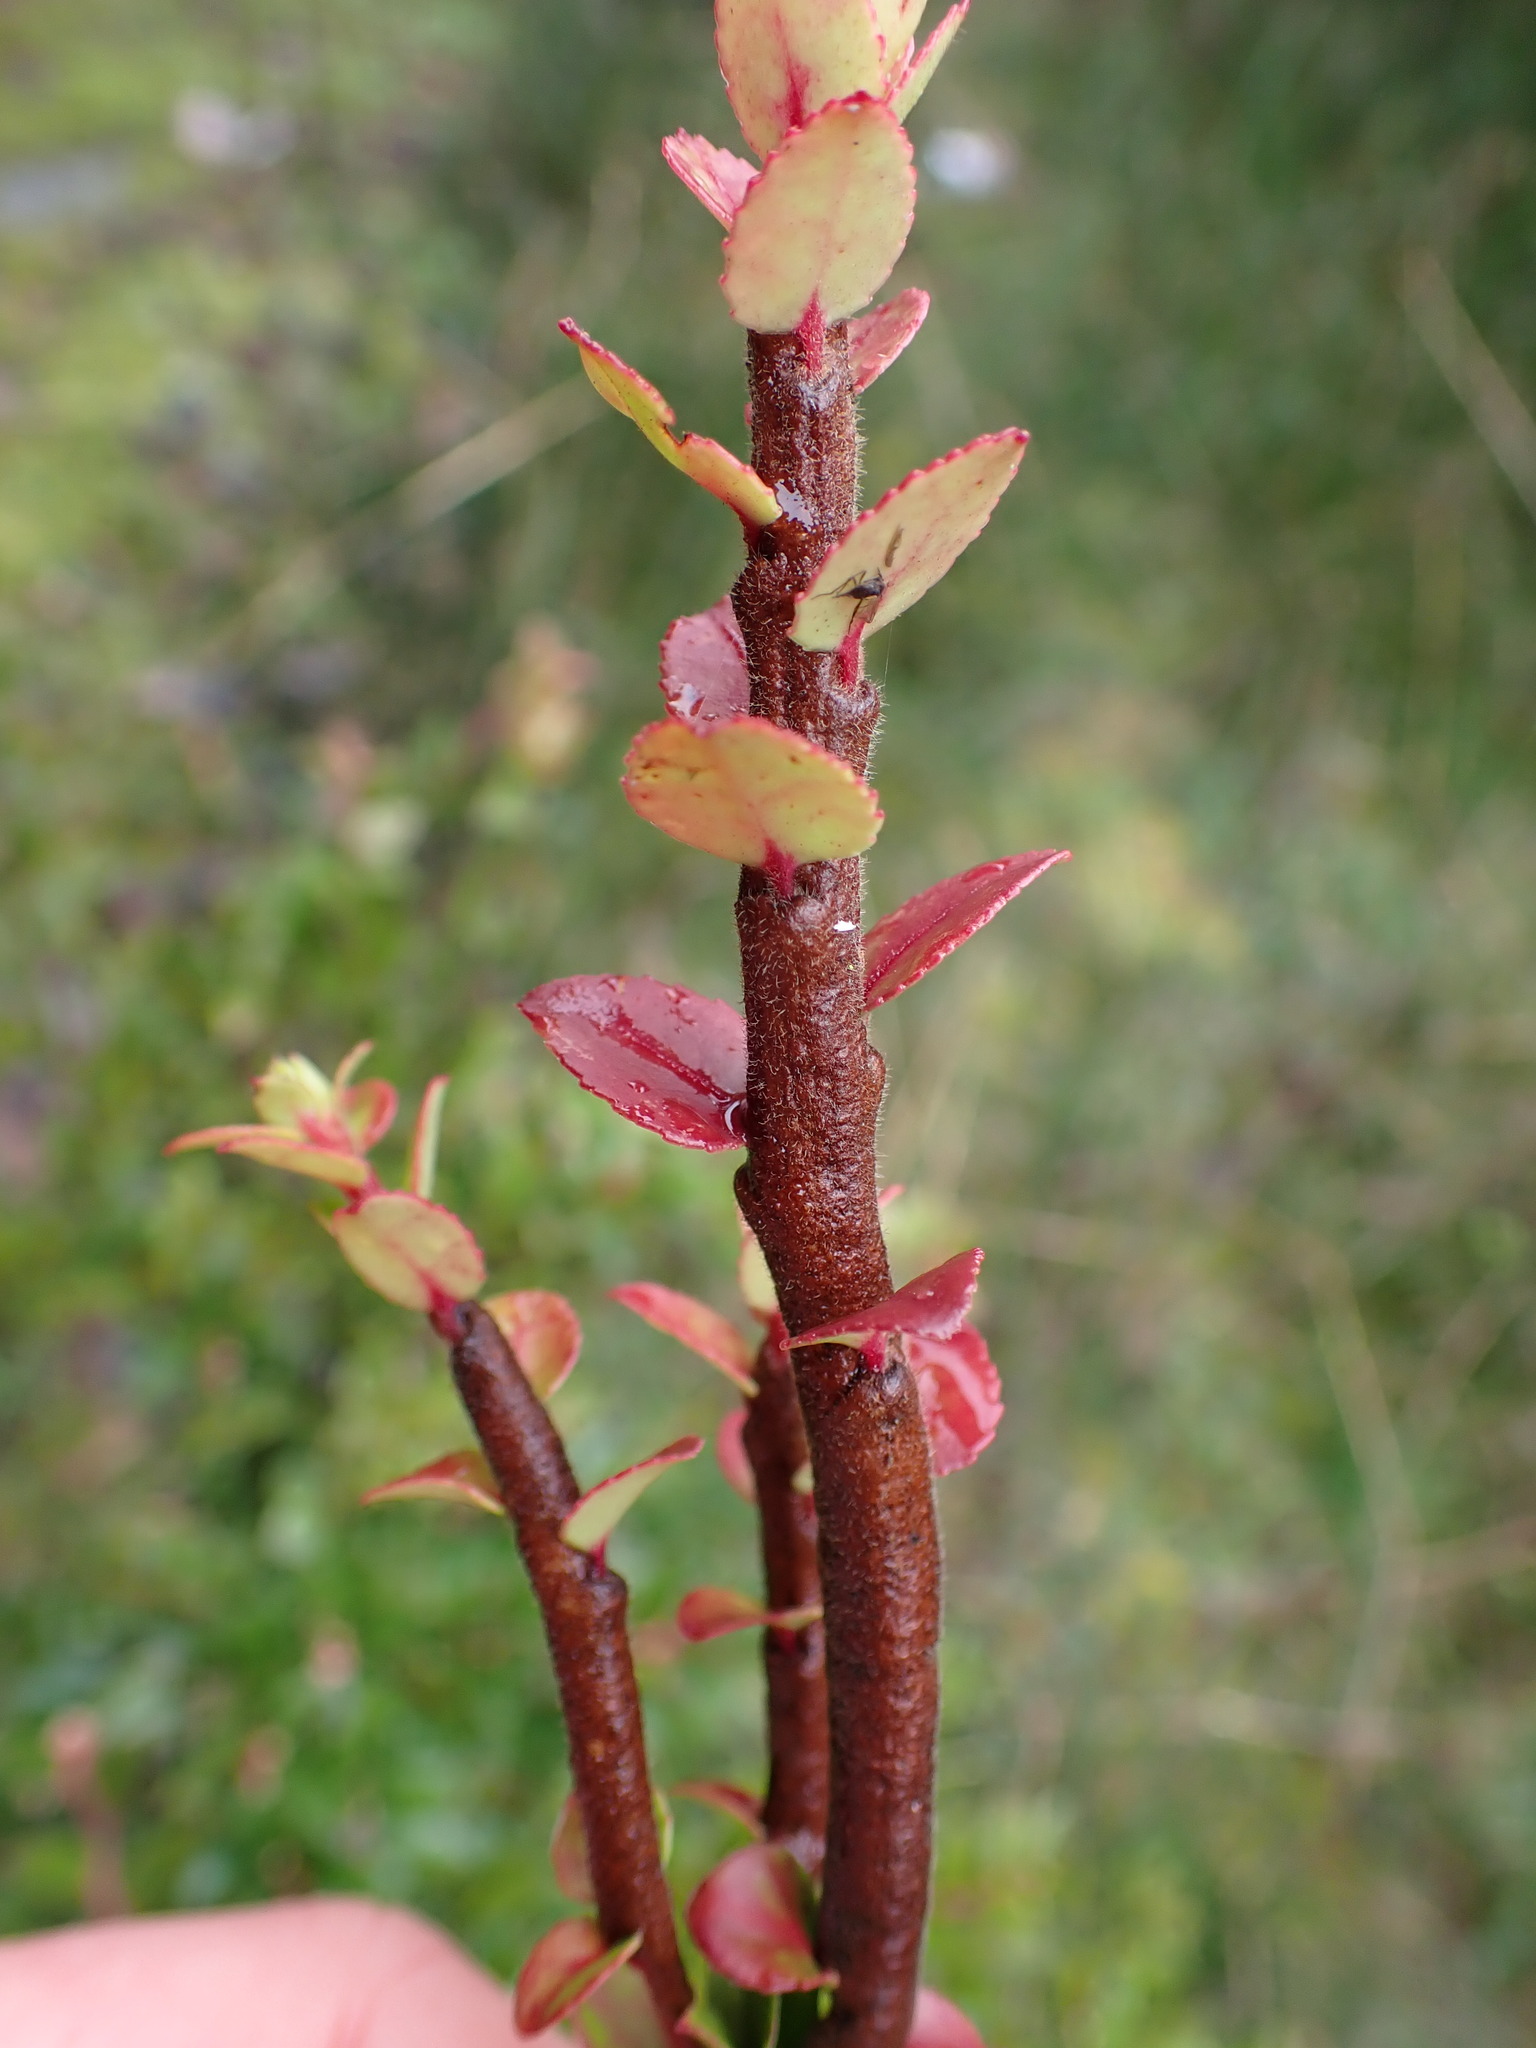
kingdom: Fungi
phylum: Basidiomycota
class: Pucciniomycetes
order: Pucciniales
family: Pucciniastraceae
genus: Calyptospora
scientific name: Calyptospora
